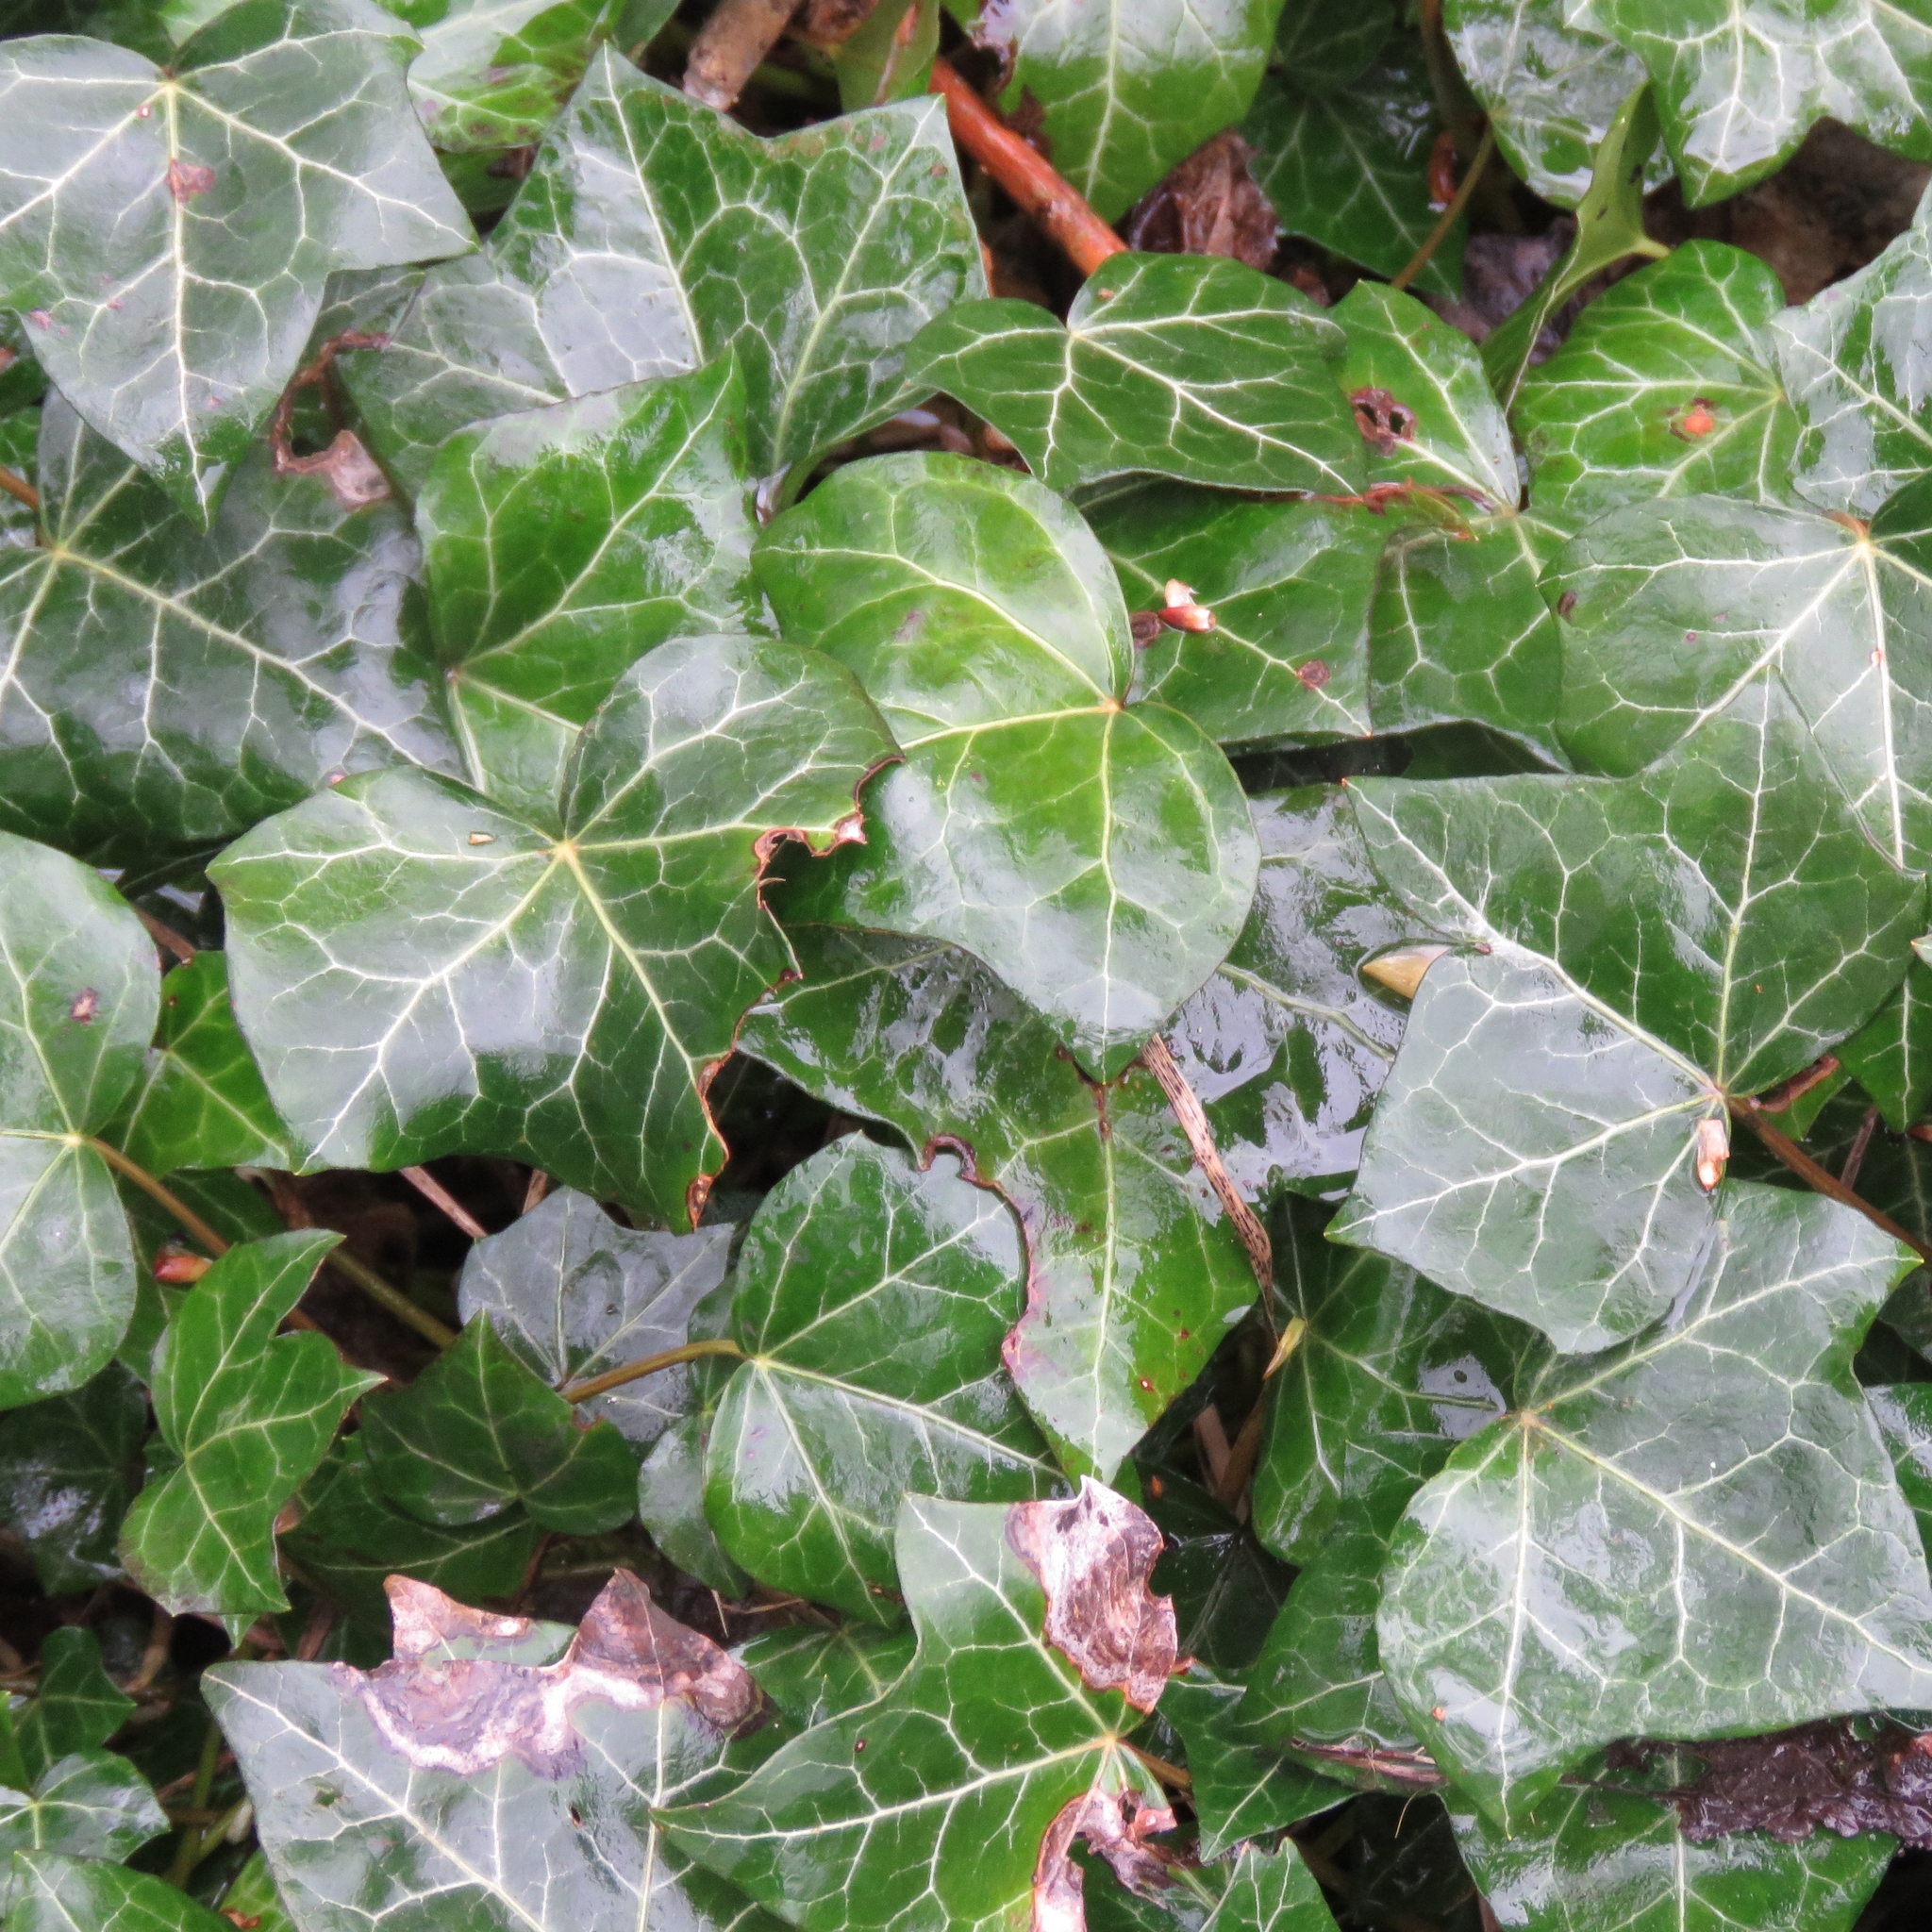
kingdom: Plantae
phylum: Tracheophyta
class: Magnoliopsida
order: Apiales
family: Araliaceae
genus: Hedera
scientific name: Hedera helix
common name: Ivy
